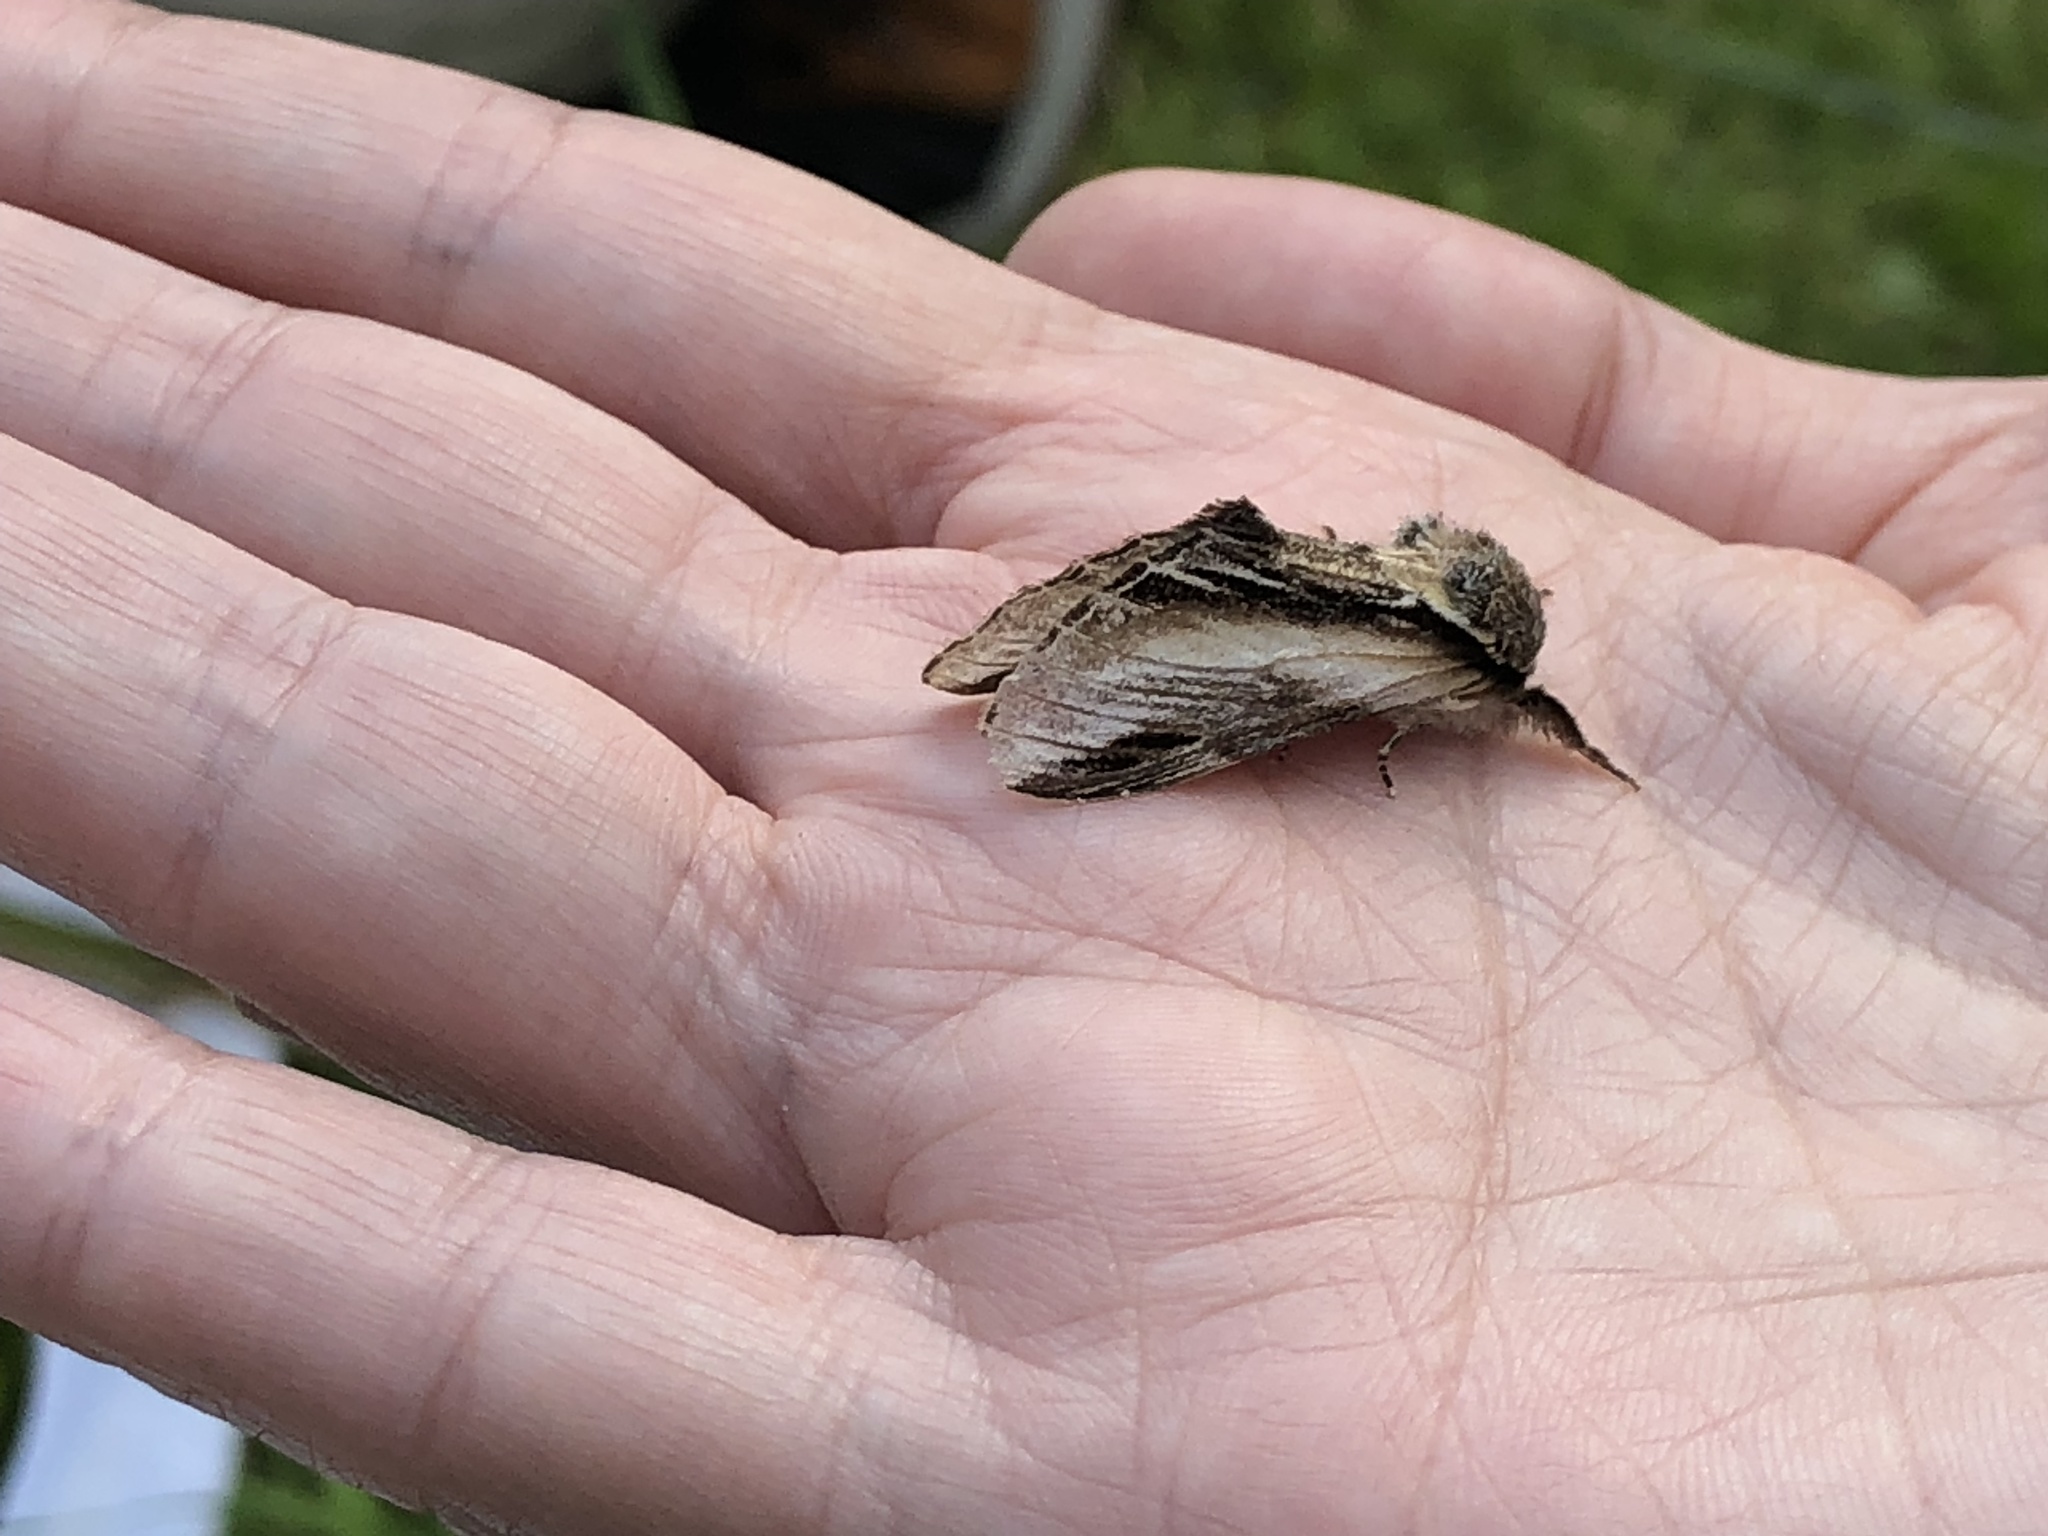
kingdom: Animalia
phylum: Arthropoda
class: Insecta
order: Lepidoptera
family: Notodontidae
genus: Pheosia
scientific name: Pheosia tremula
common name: Swallow prominent
